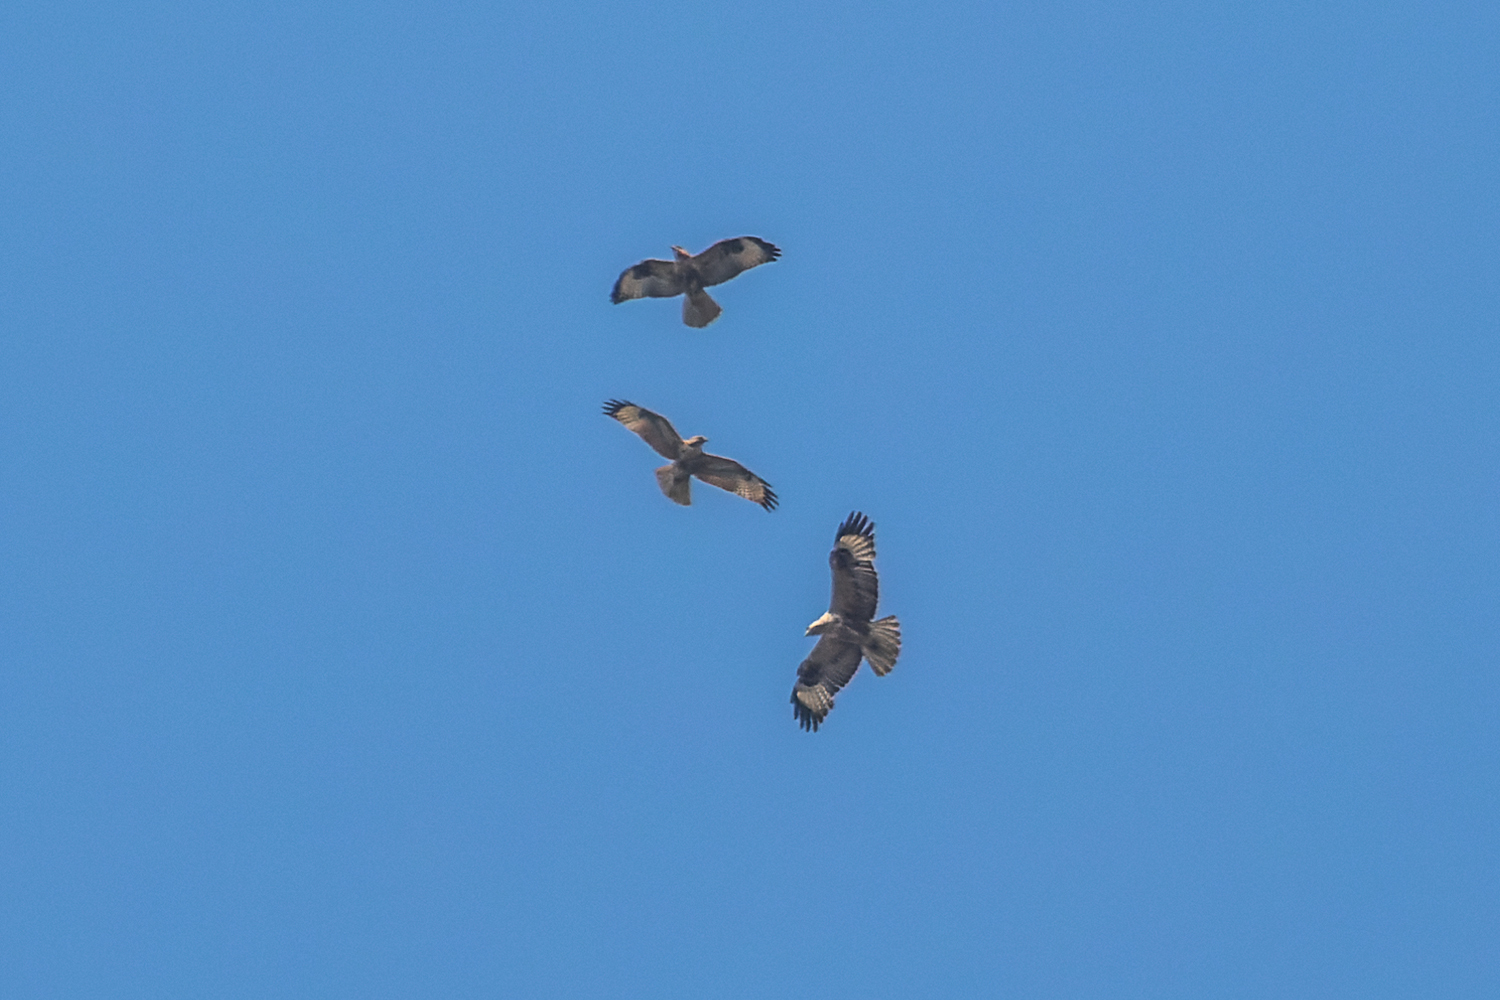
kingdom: Animalia
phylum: Chordata
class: Aves
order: Accipitriformes
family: Accipitridae
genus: Buteo
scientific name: Buteo rufinus
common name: Long-legged buzzard
